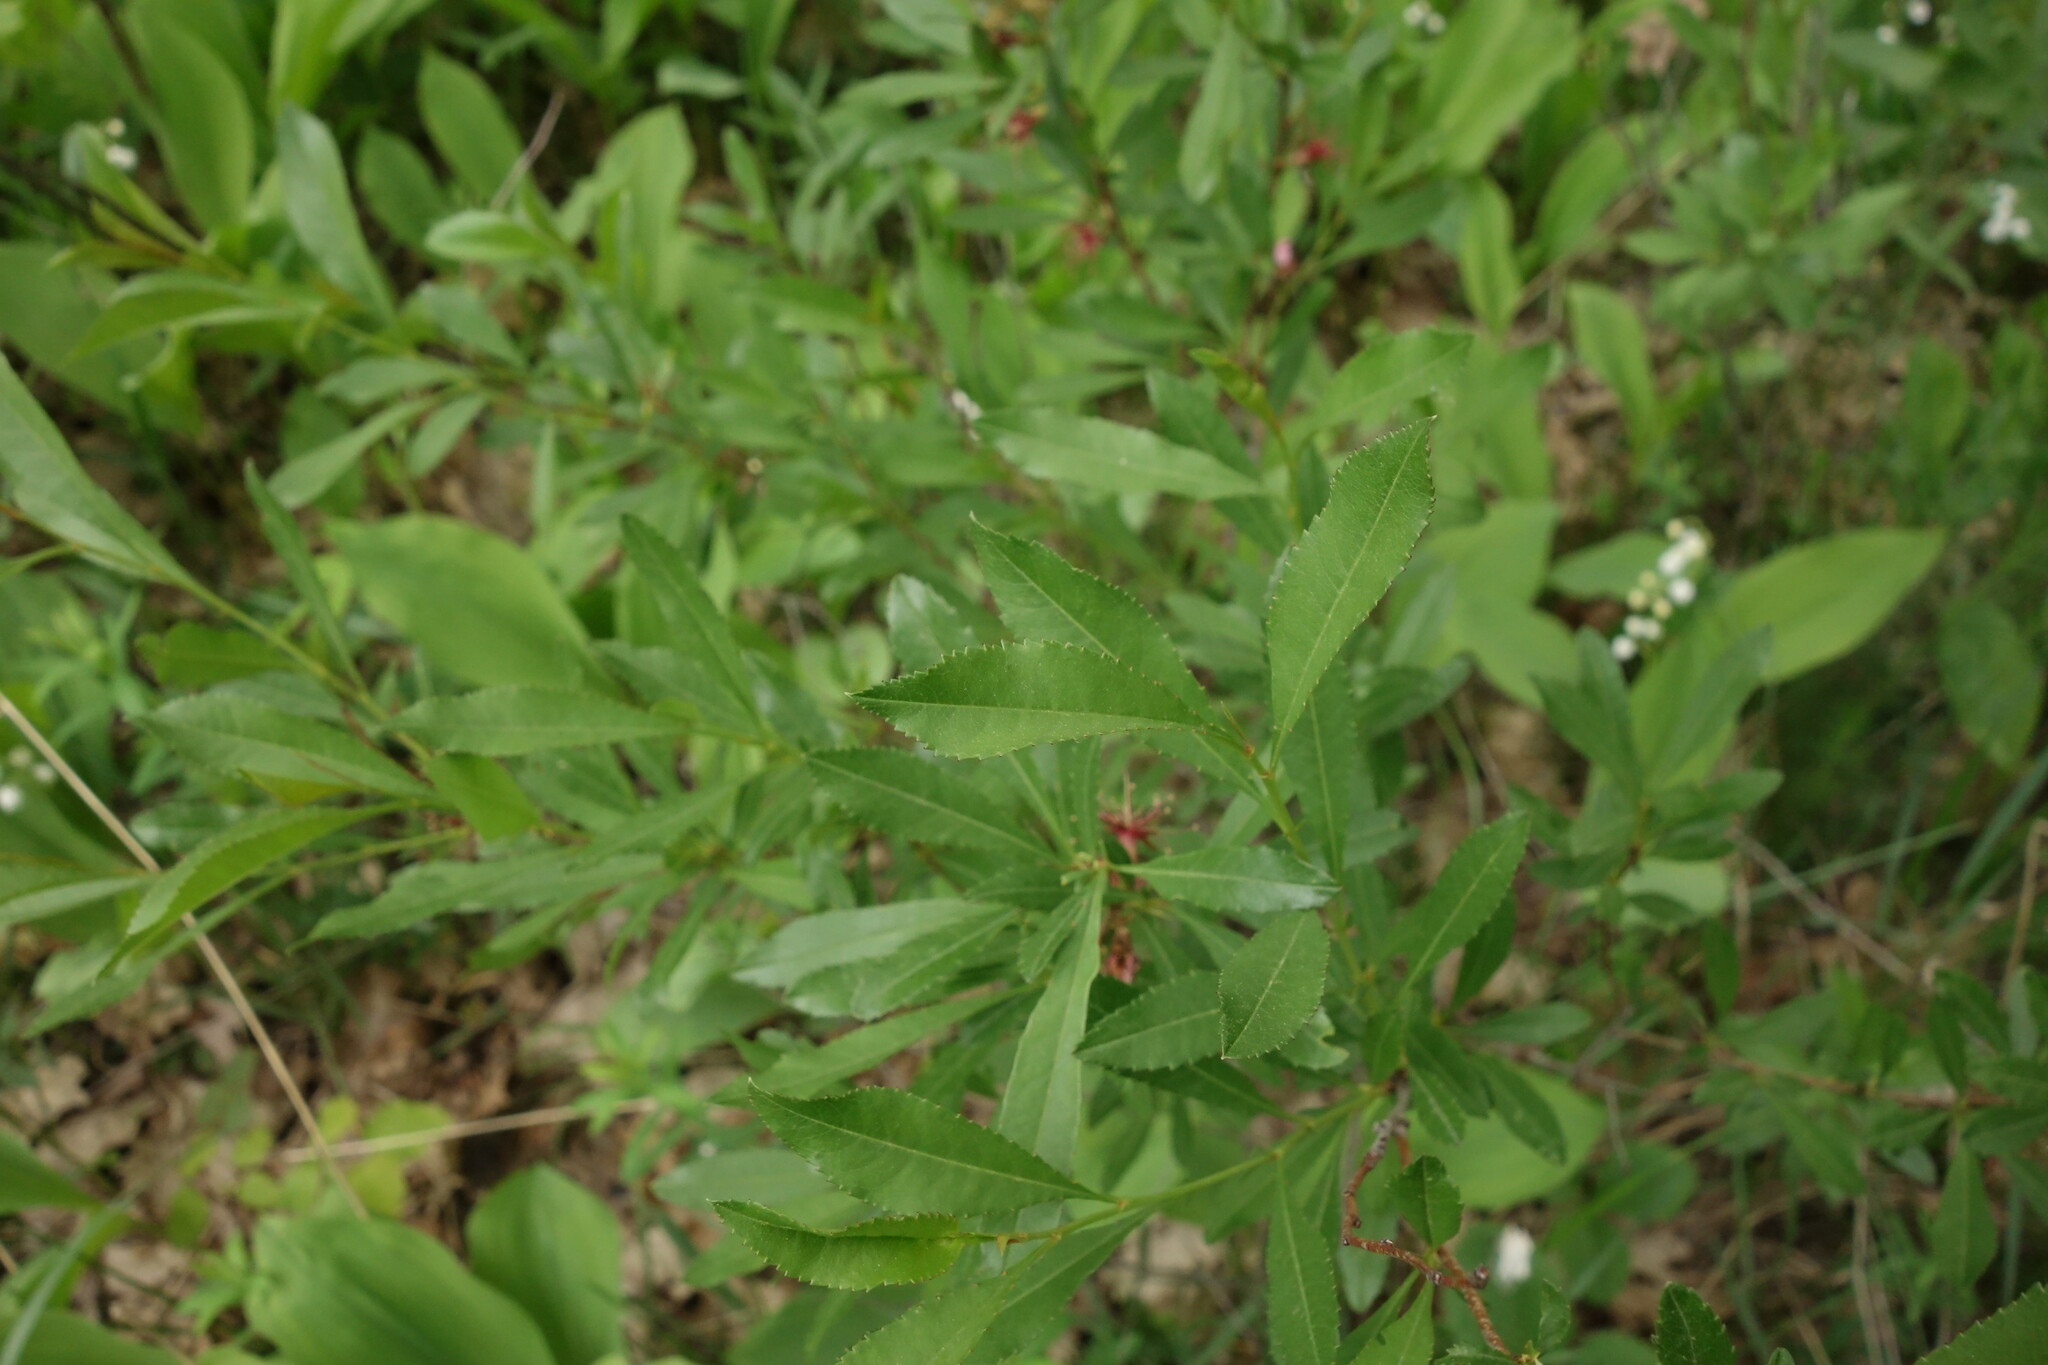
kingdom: Plantae
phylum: Tracheophyta
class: Magnoliopsida
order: Rosales
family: Rosaceae
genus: Prunus
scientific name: Prunus tenella
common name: Dwarf russian almond
